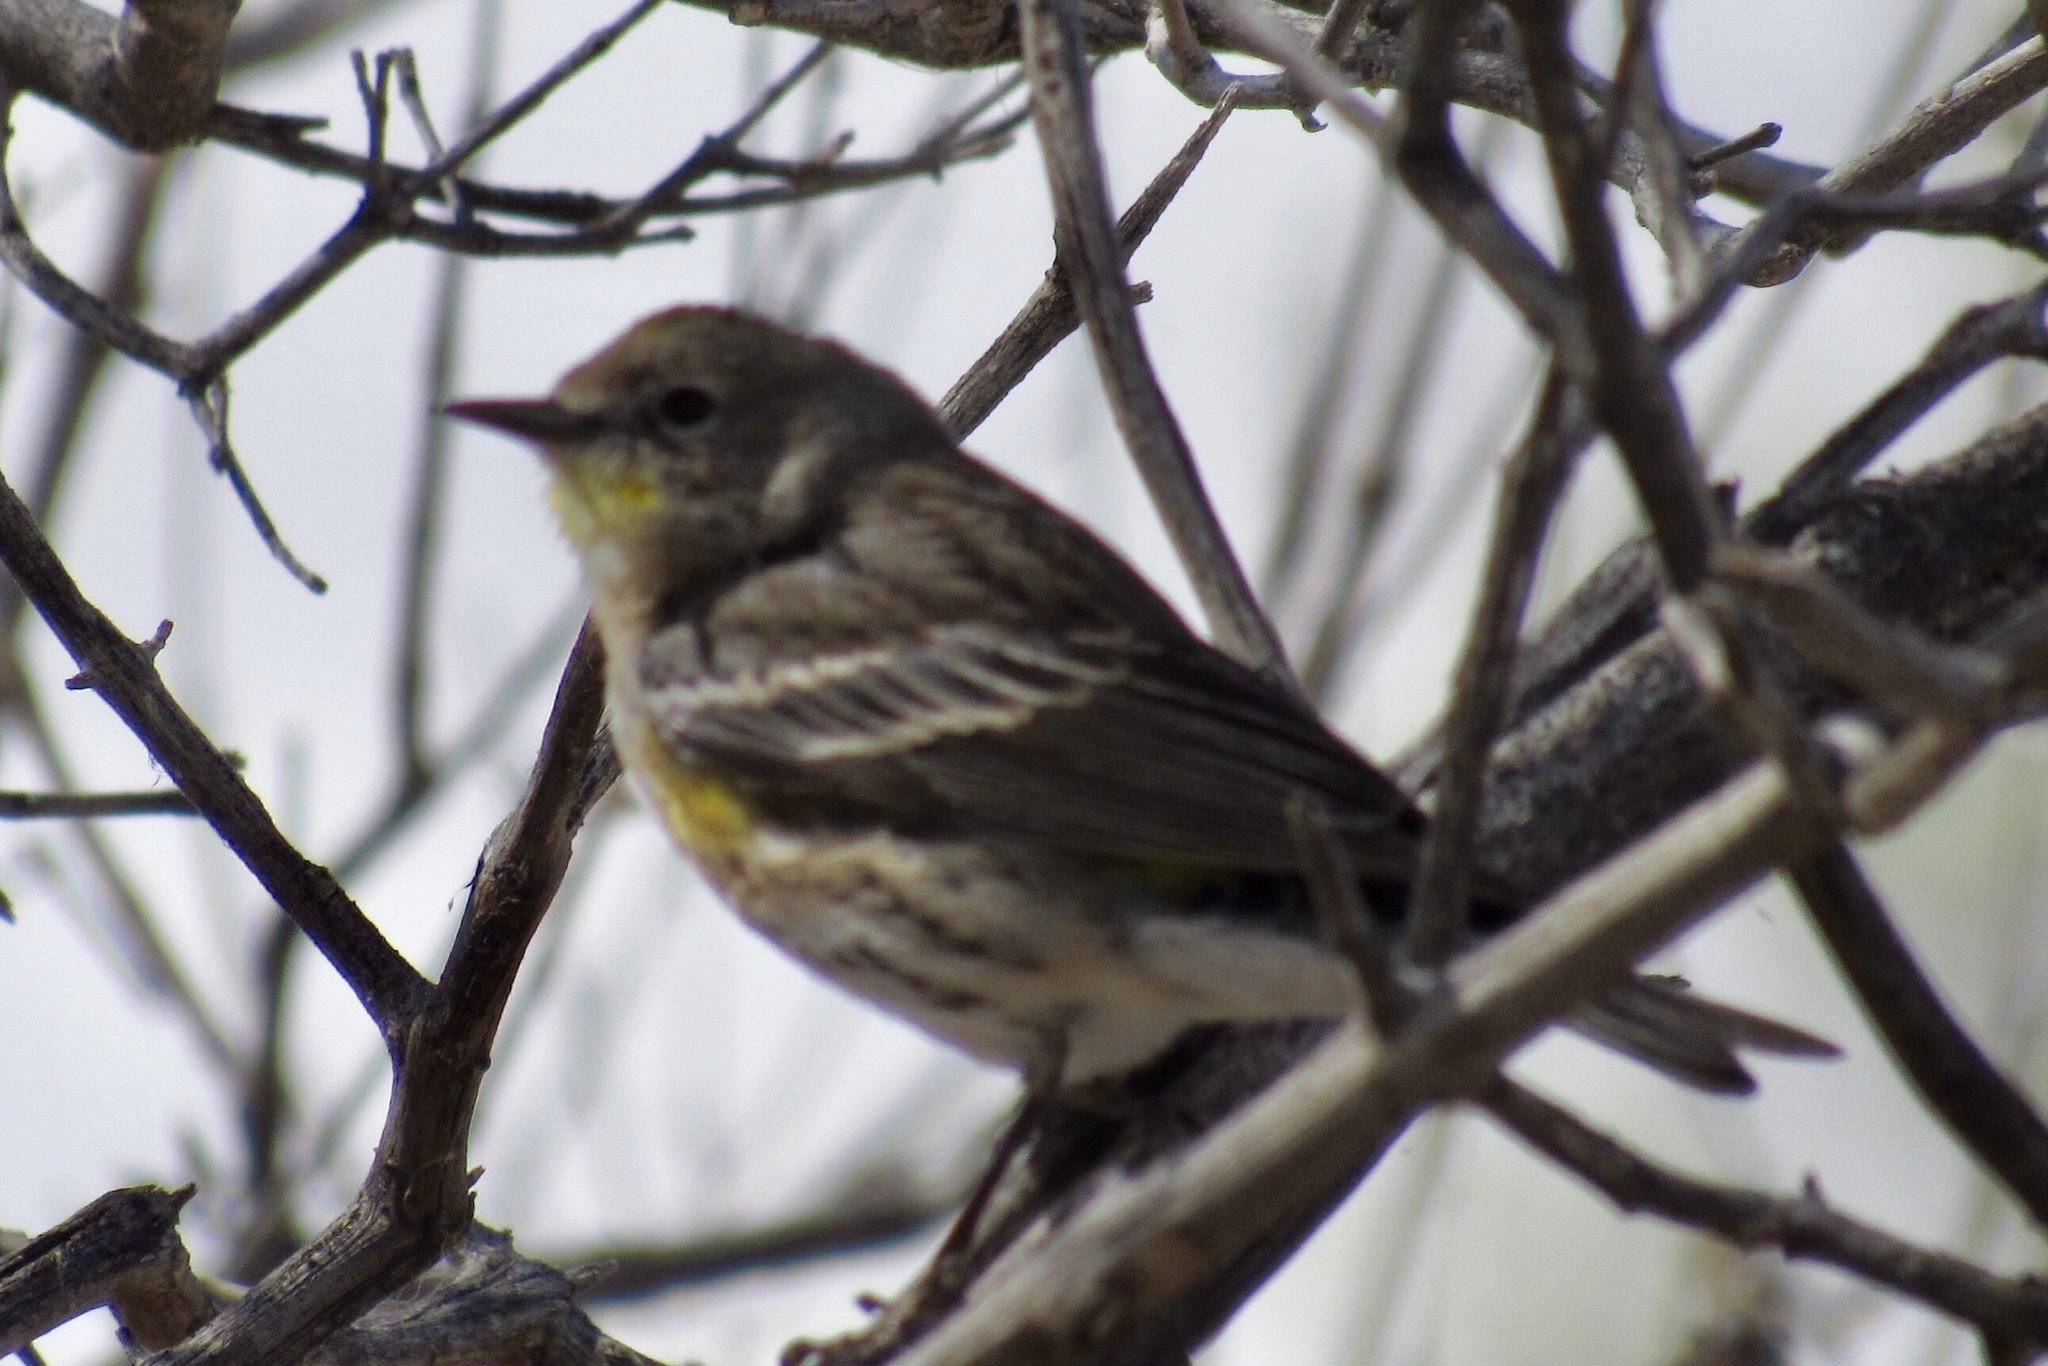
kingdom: Animalia
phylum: Chordata
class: Aves
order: Passeriformes
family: Parulidae
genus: Setophaga
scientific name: Setophaga auduboni
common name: Audubon's warbler
